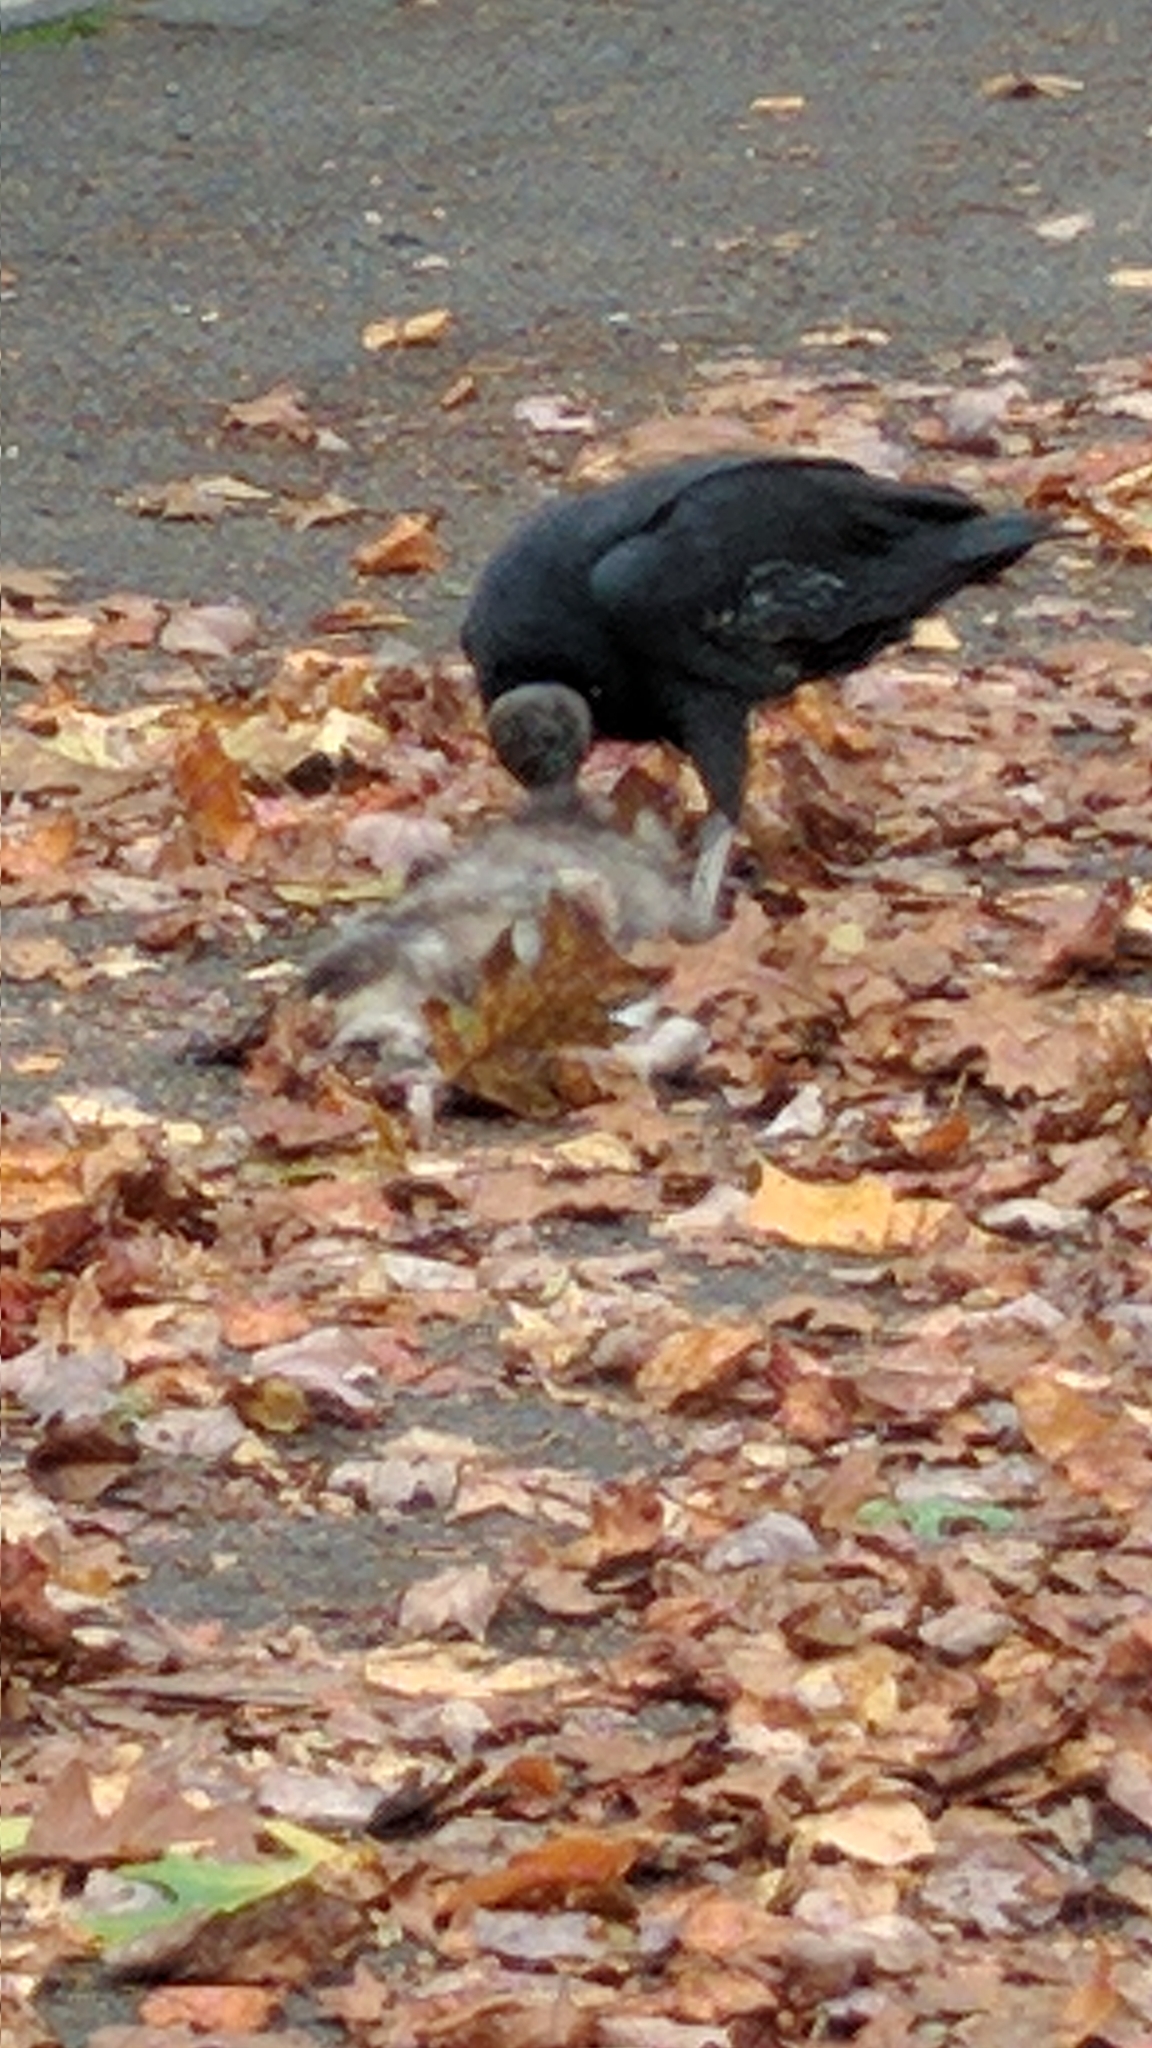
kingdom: Animalia
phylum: Chordata
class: Aves
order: Accipitriformes
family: Cathartidae
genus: Coragyps
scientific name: Coragyps atratus
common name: Black vulture
